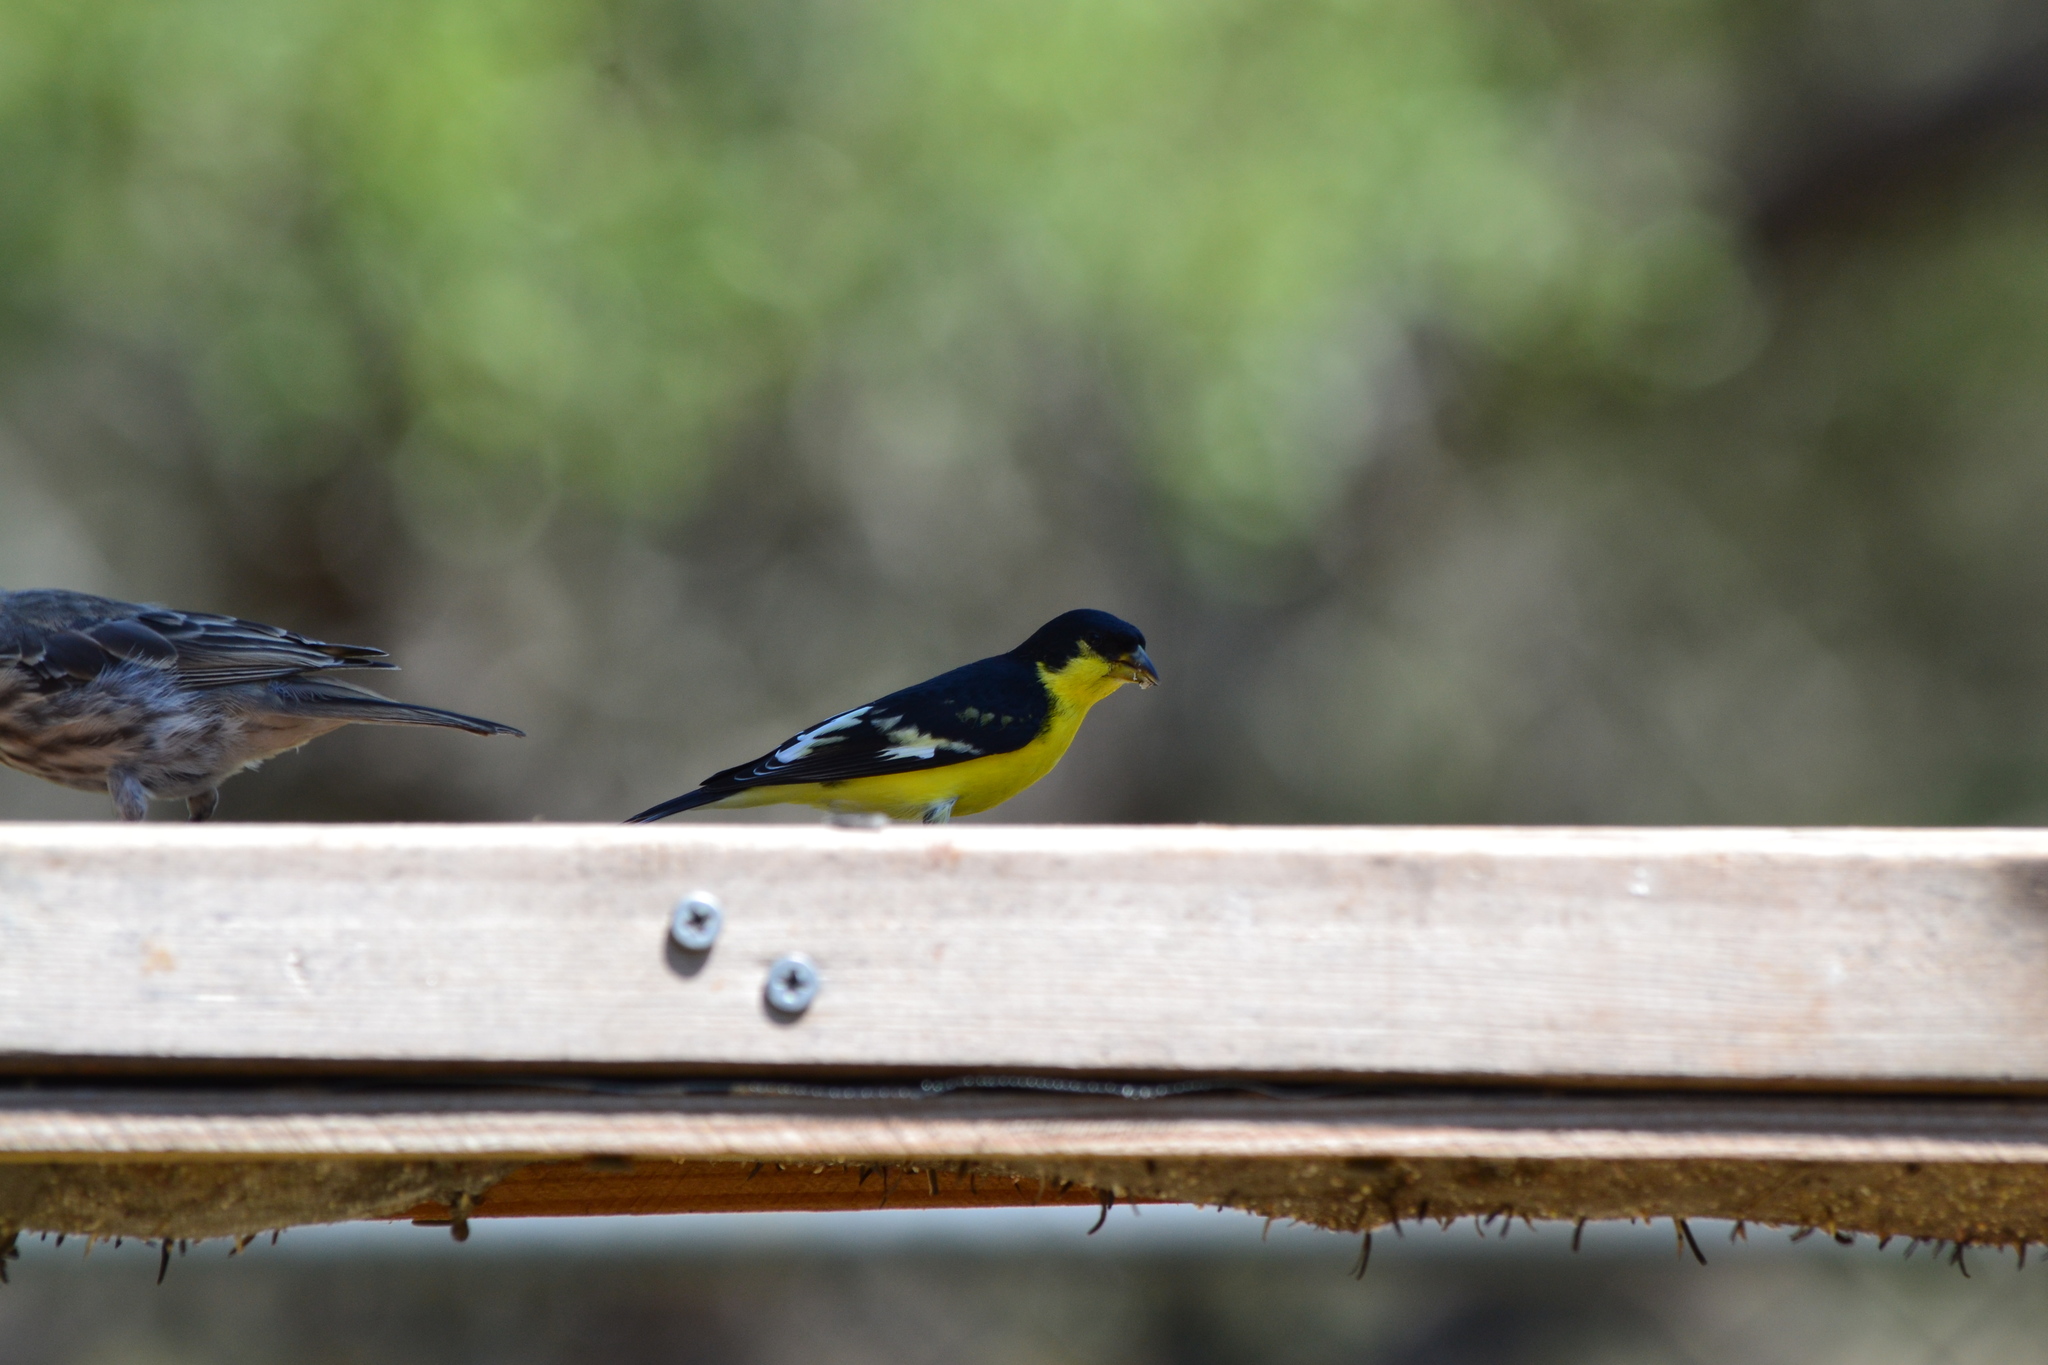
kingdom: Animalia
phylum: Chordata
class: Aves
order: Passeriformes
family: Fringillidae
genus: Spinus
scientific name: Spinus psaltria
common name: Lesser goldfinch
